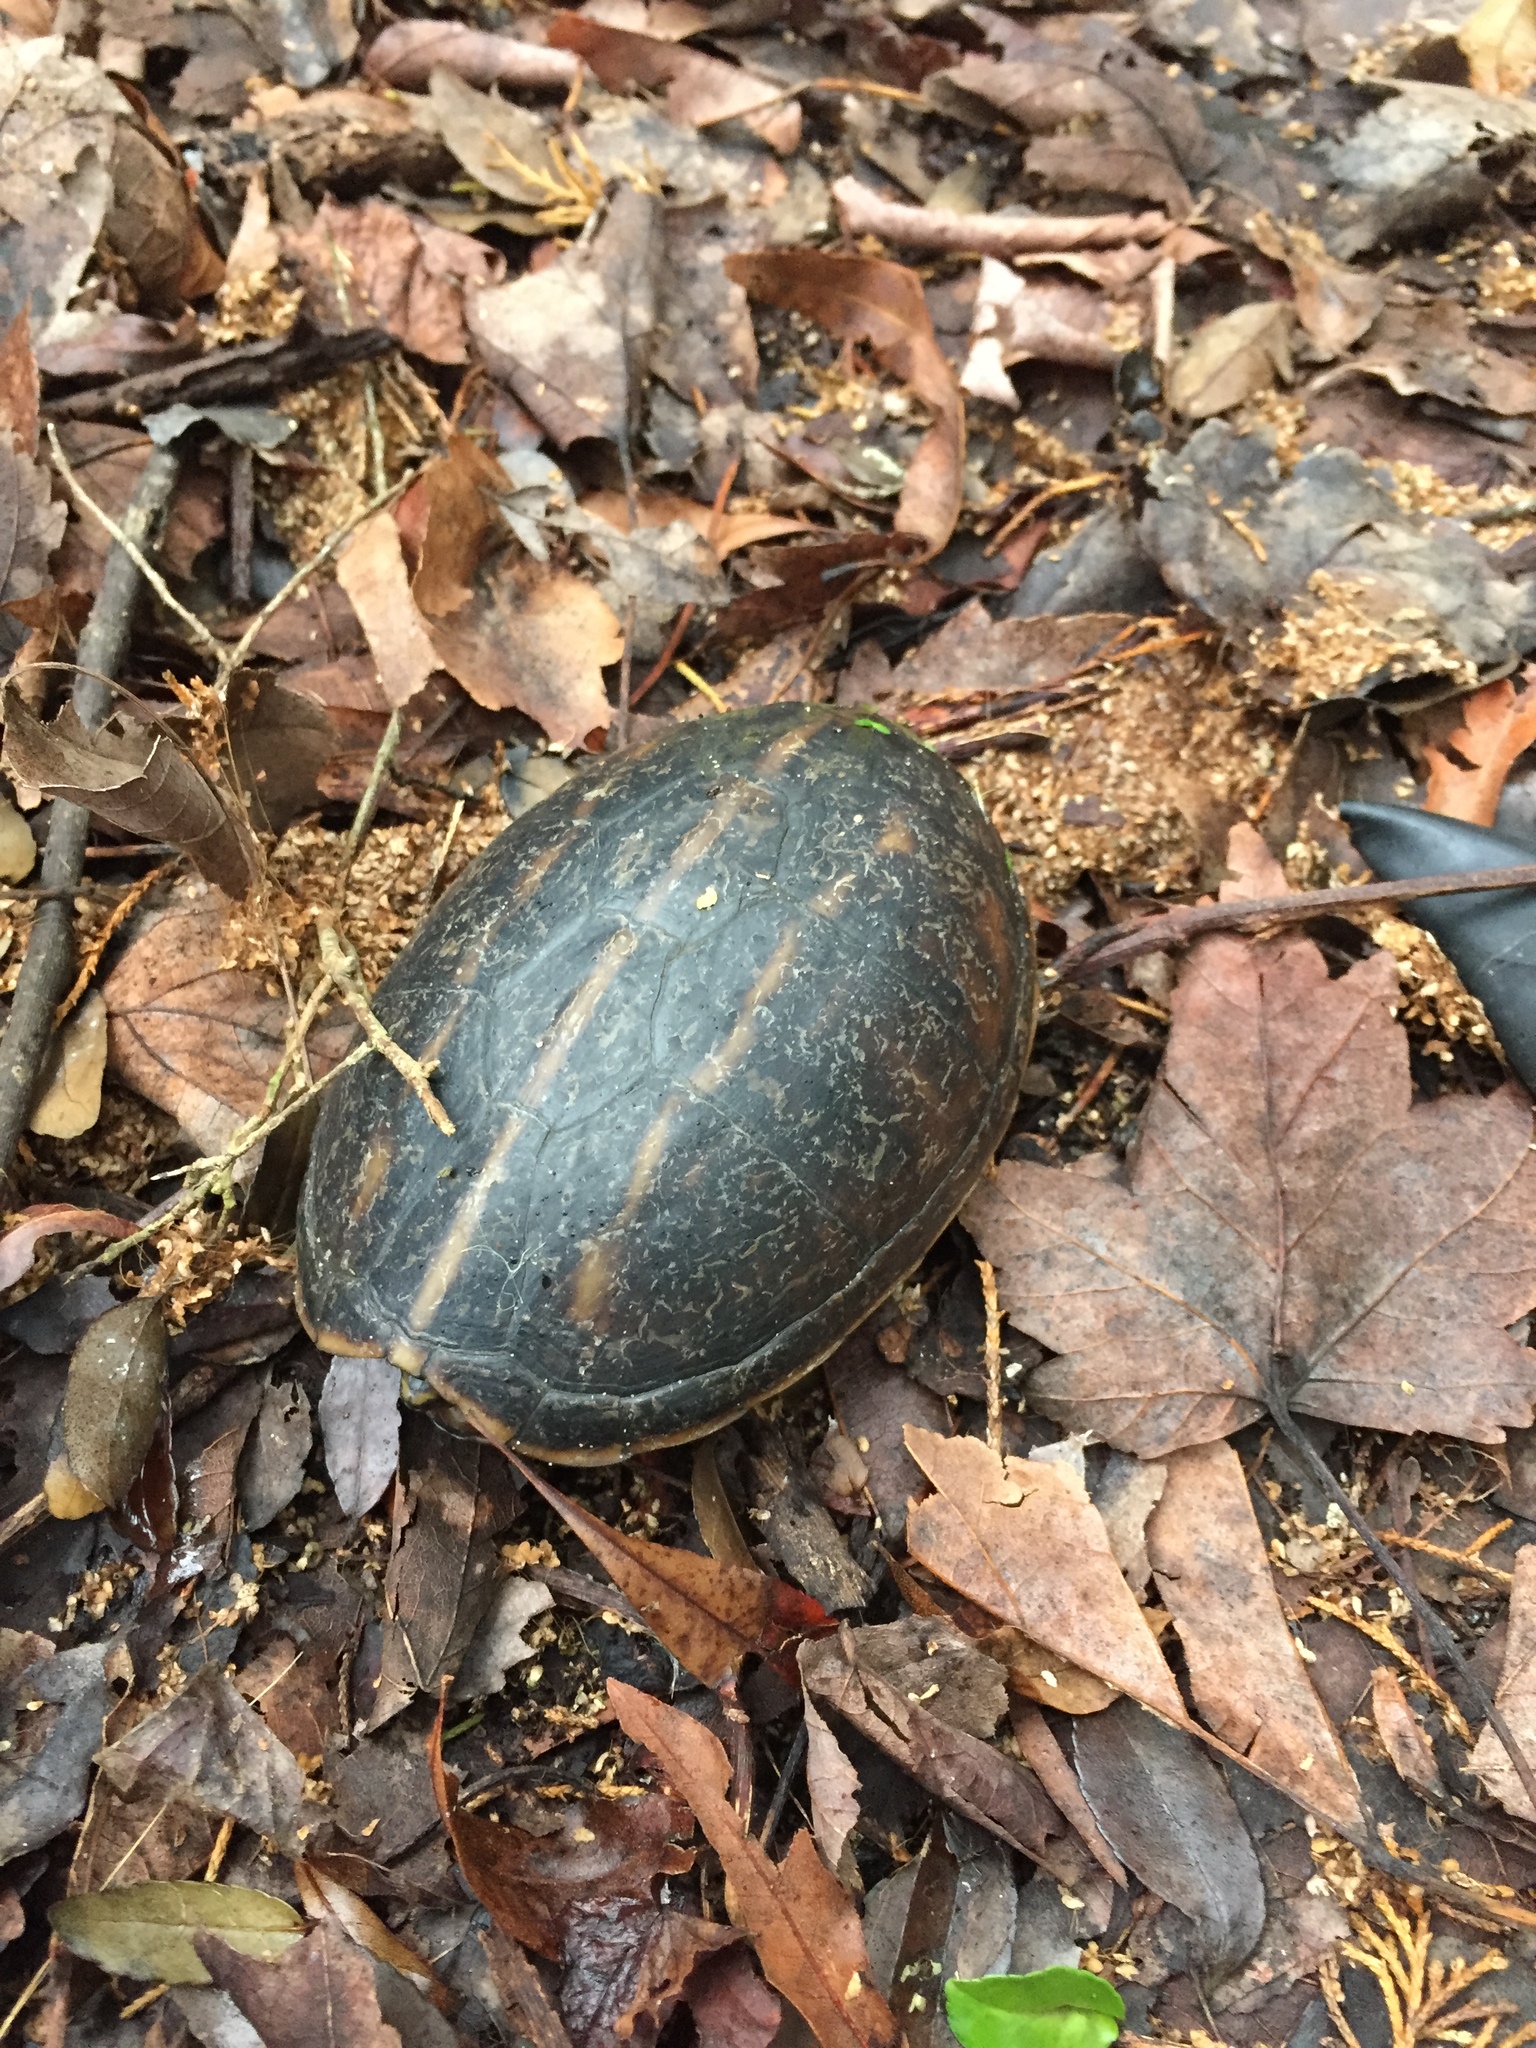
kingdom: Animalia
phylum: Chordata
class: Testudines
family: Kinosternidae
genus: Kinosternon
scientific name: Kinosternon baurii
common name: Striped mud turtle
